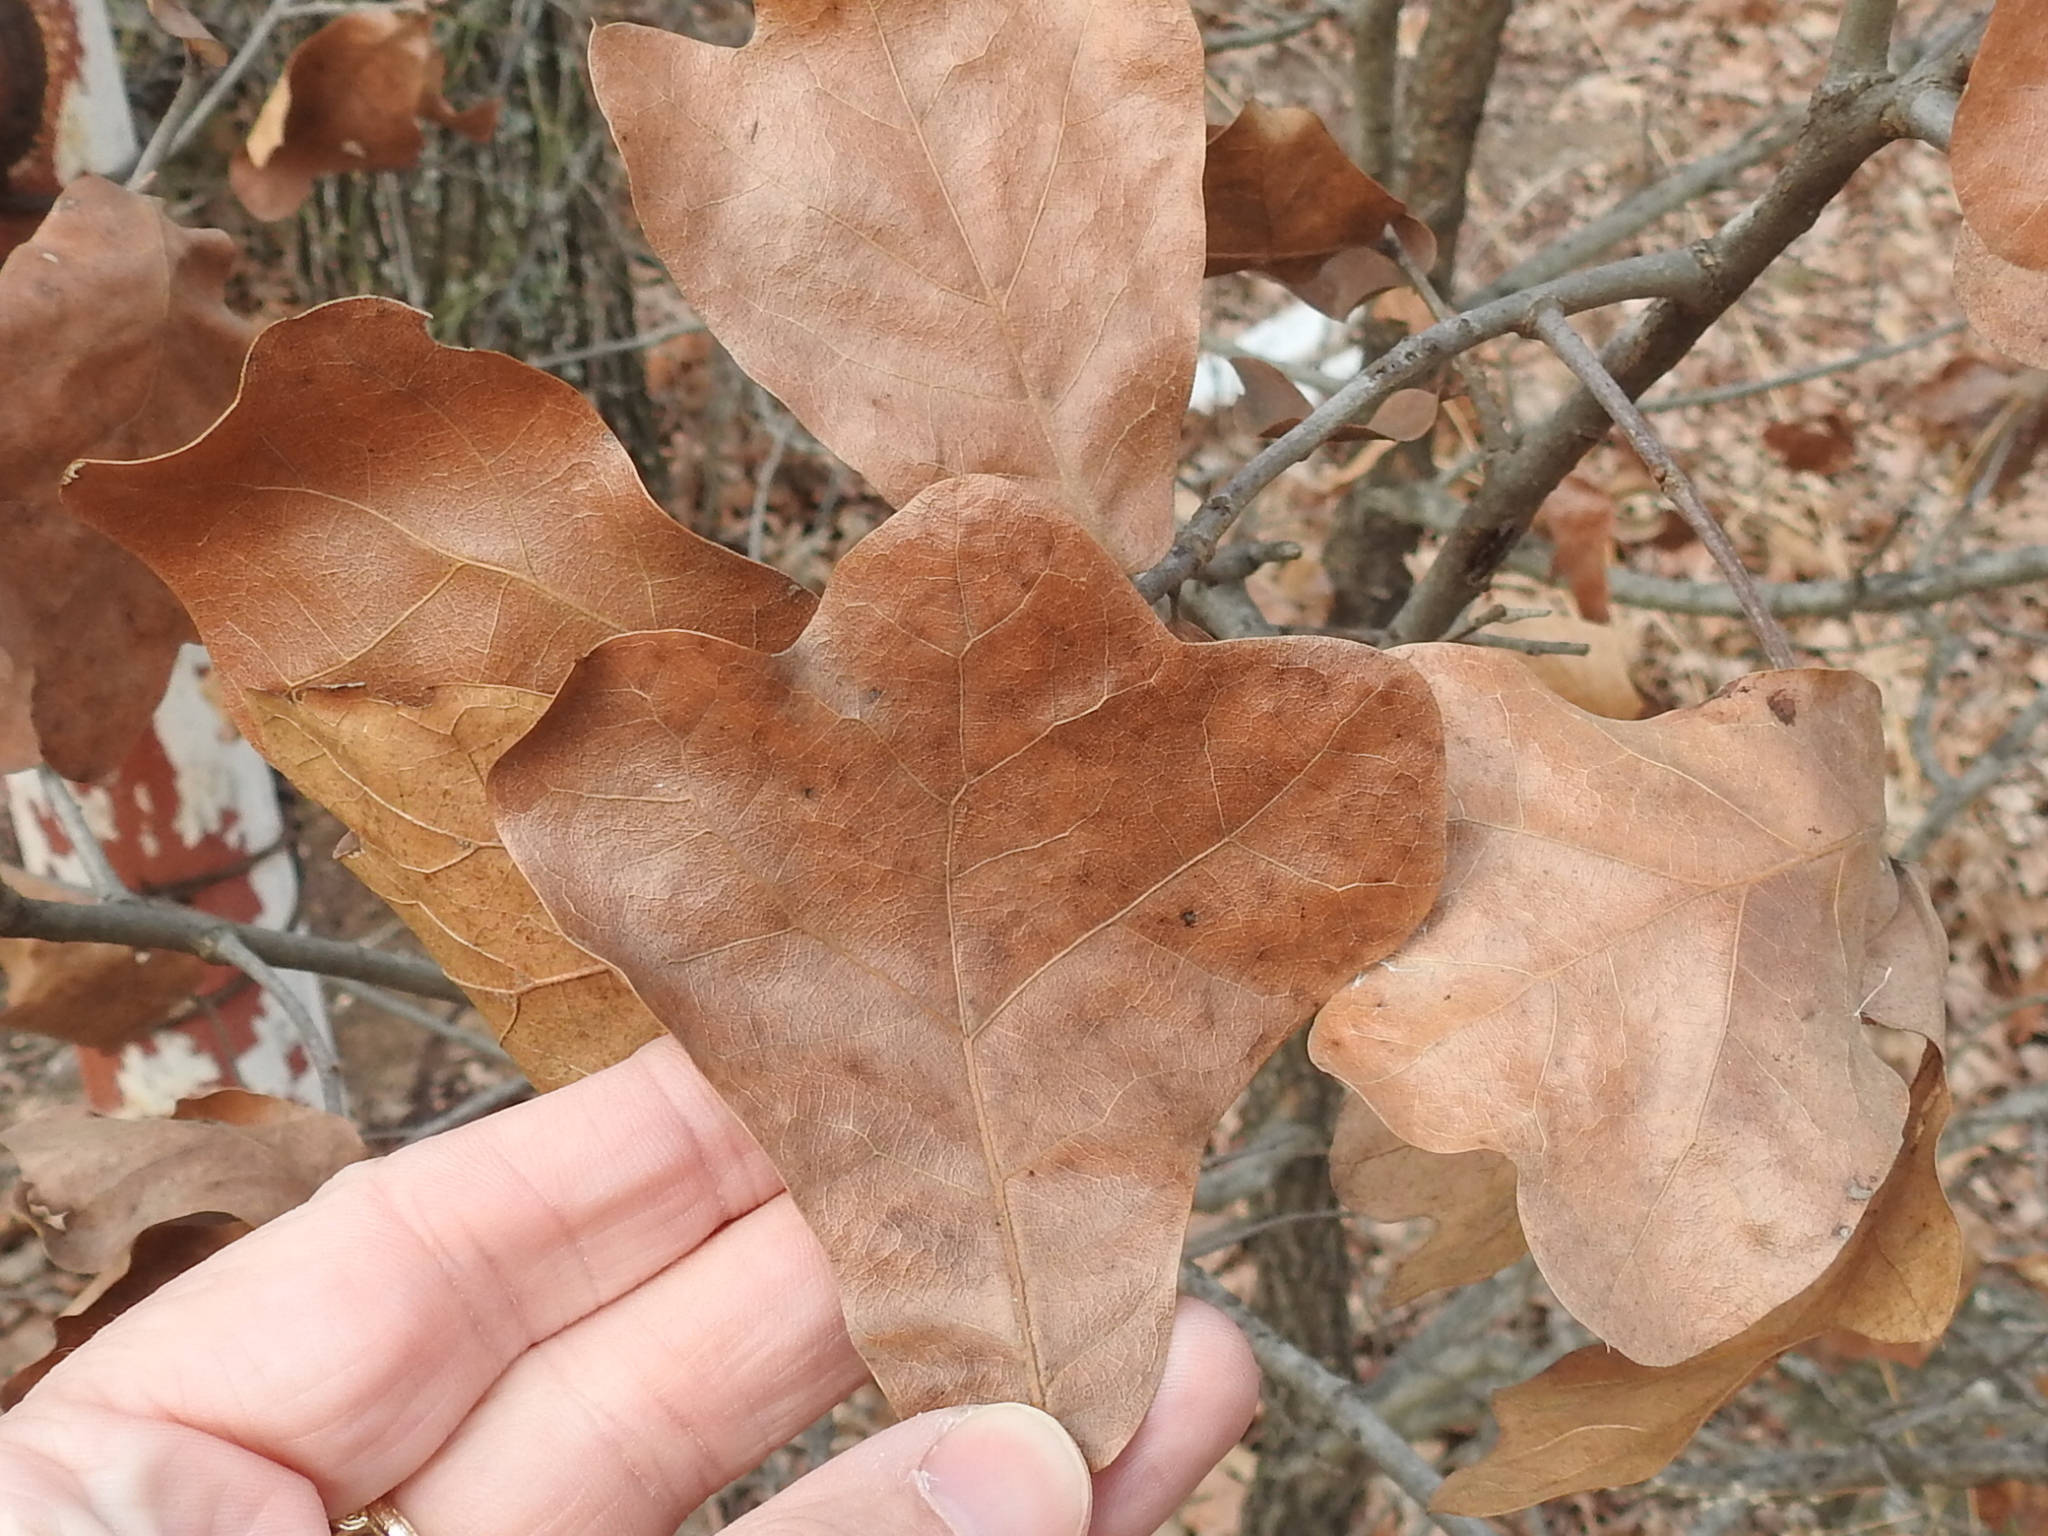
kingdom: Plantae
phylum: Tracheophyta
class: Magnoliopsida
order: Fagales
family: Fagaceae
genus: Quercus
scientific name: Quercus marilandica
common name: Blackjack oak
